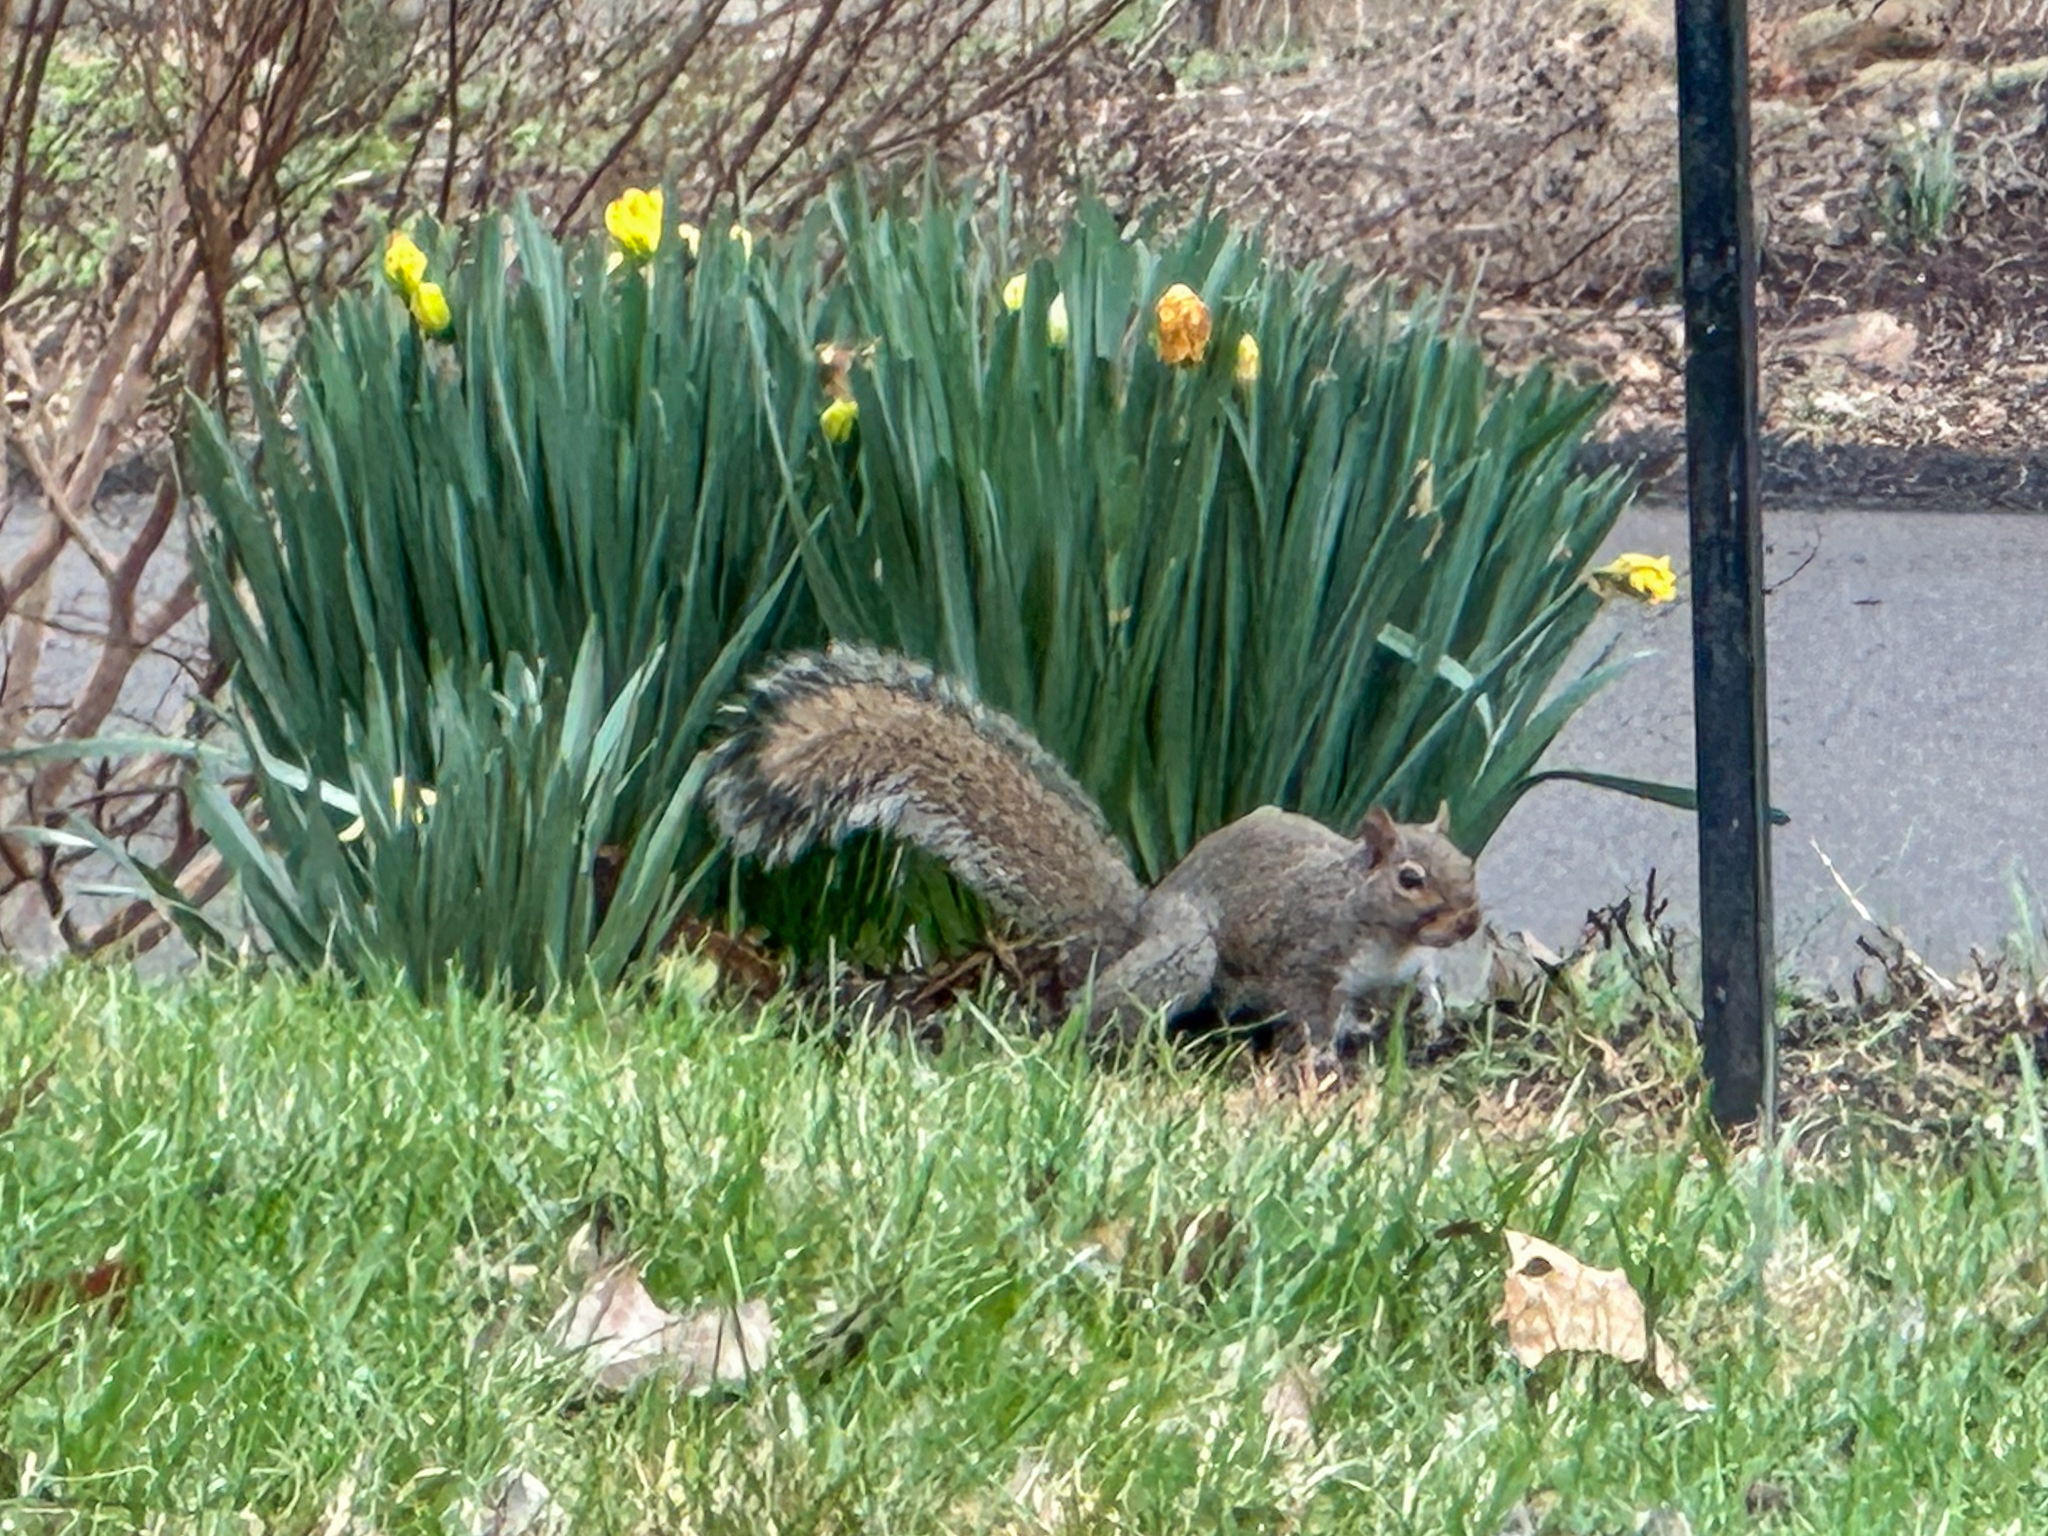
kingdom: Animalia
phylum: Chordata
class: Mammalia
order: Rodentia
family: Sciuridae
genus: Sciurus
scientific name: Sciurus carolinensis
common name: Eastern gray squirrel
